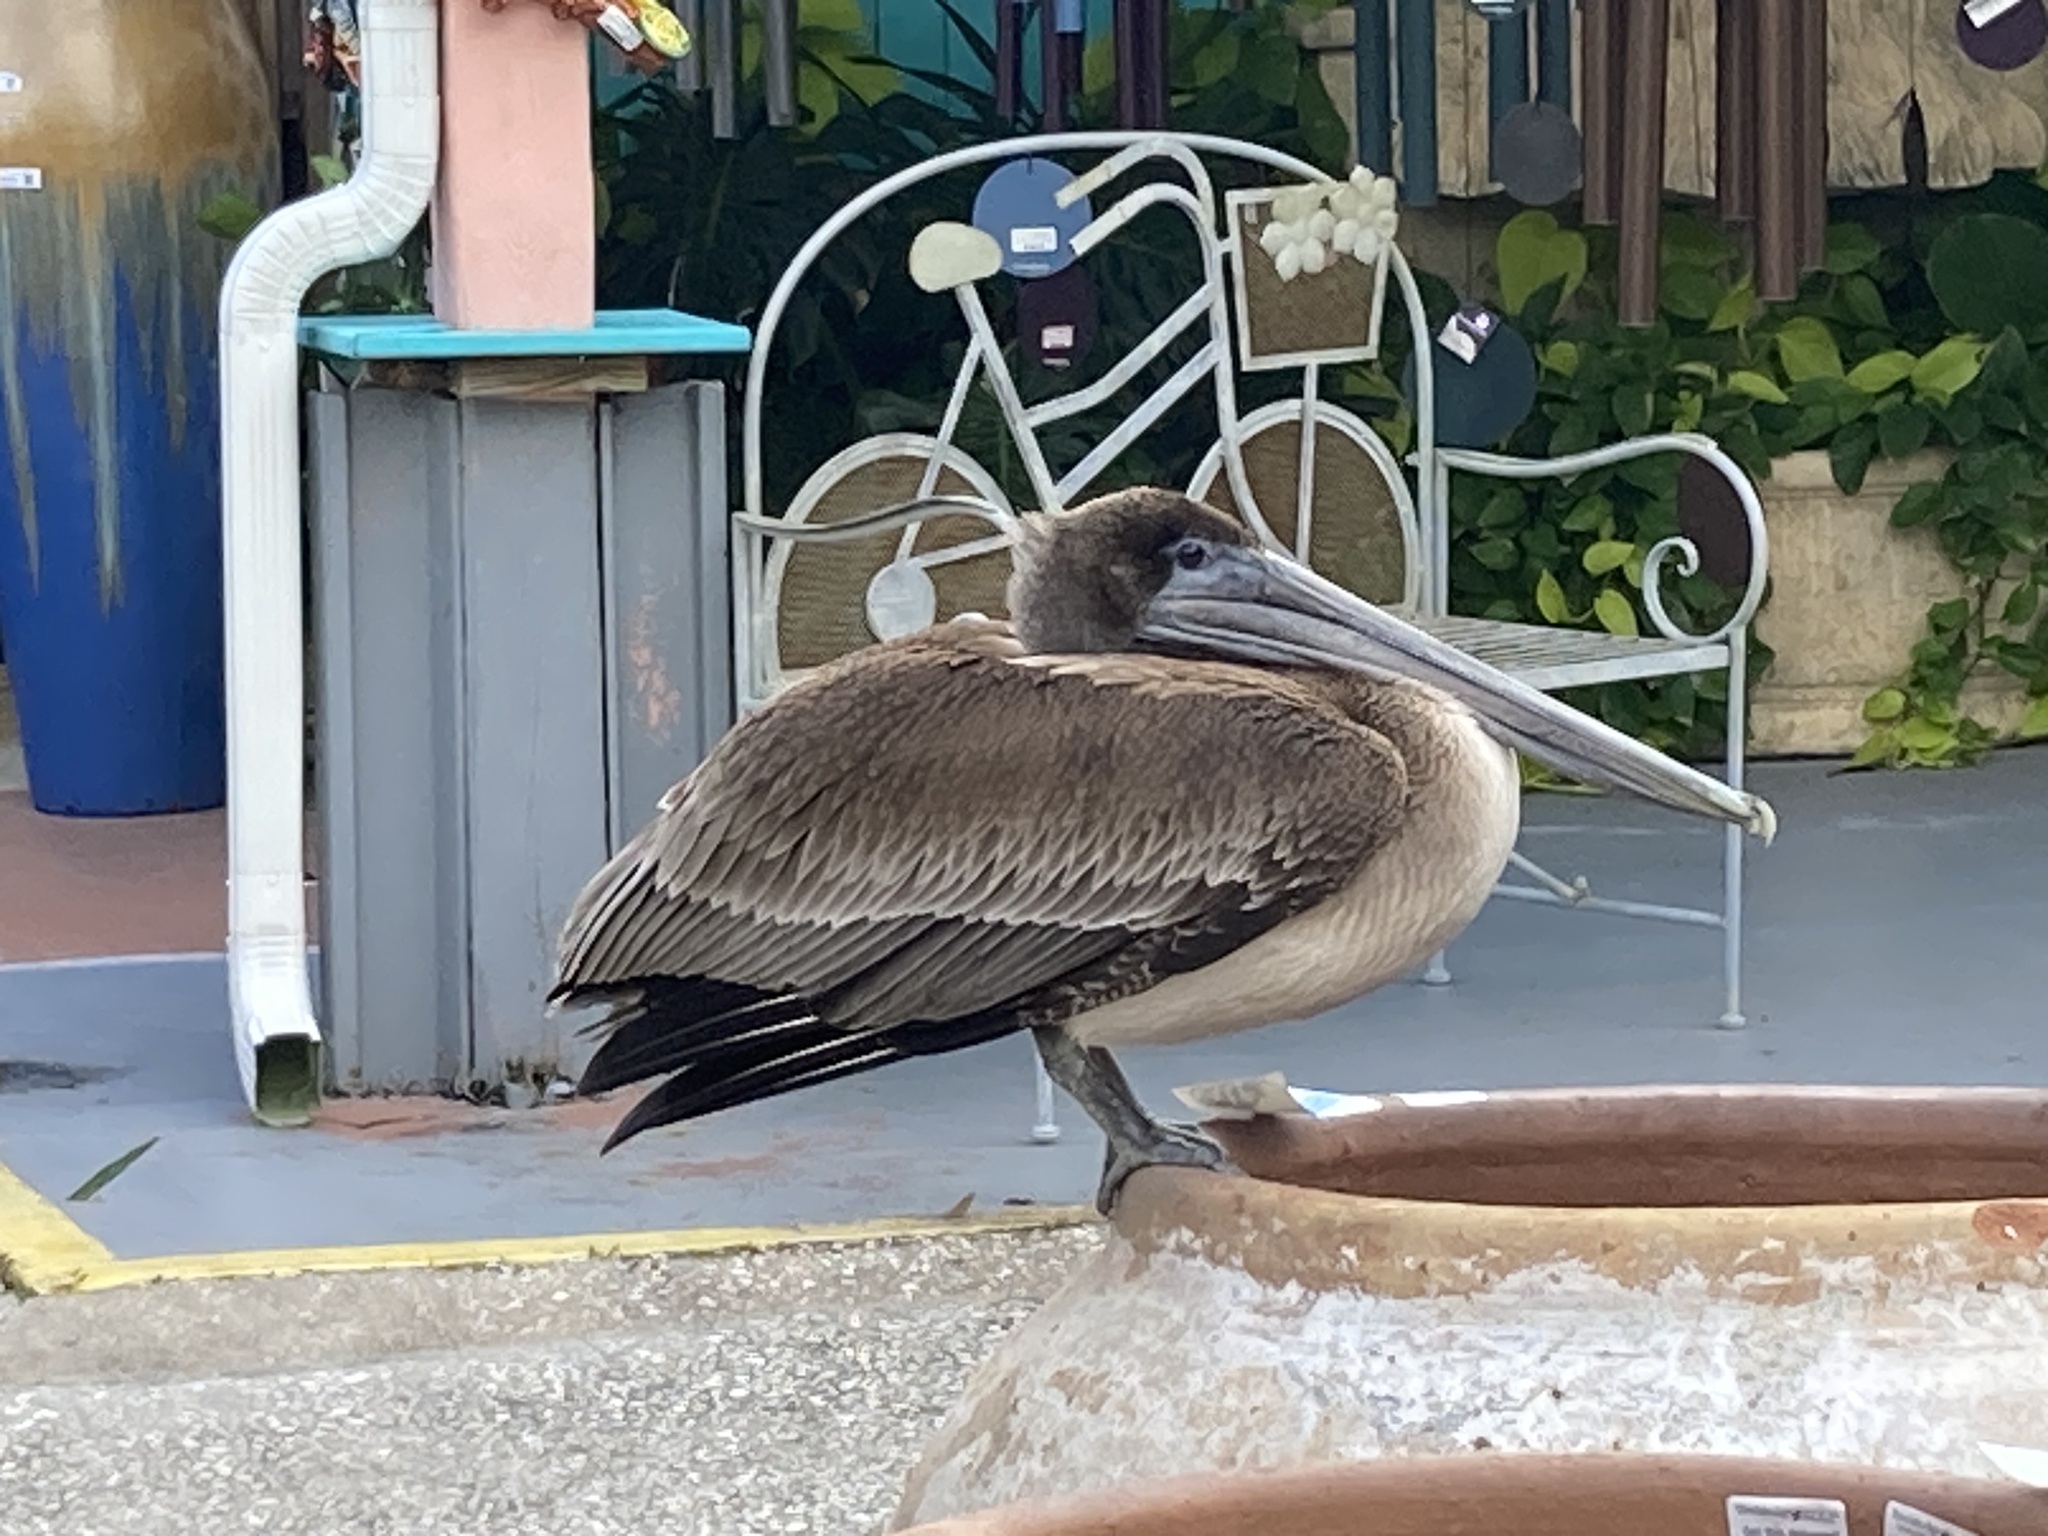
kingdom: Animalia
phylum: Chordata
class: Aves
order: Pelecaniformes
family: Pelecanidae
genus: Pelecanus
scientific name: Pelecanus occidentalis
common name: Brown pelican
